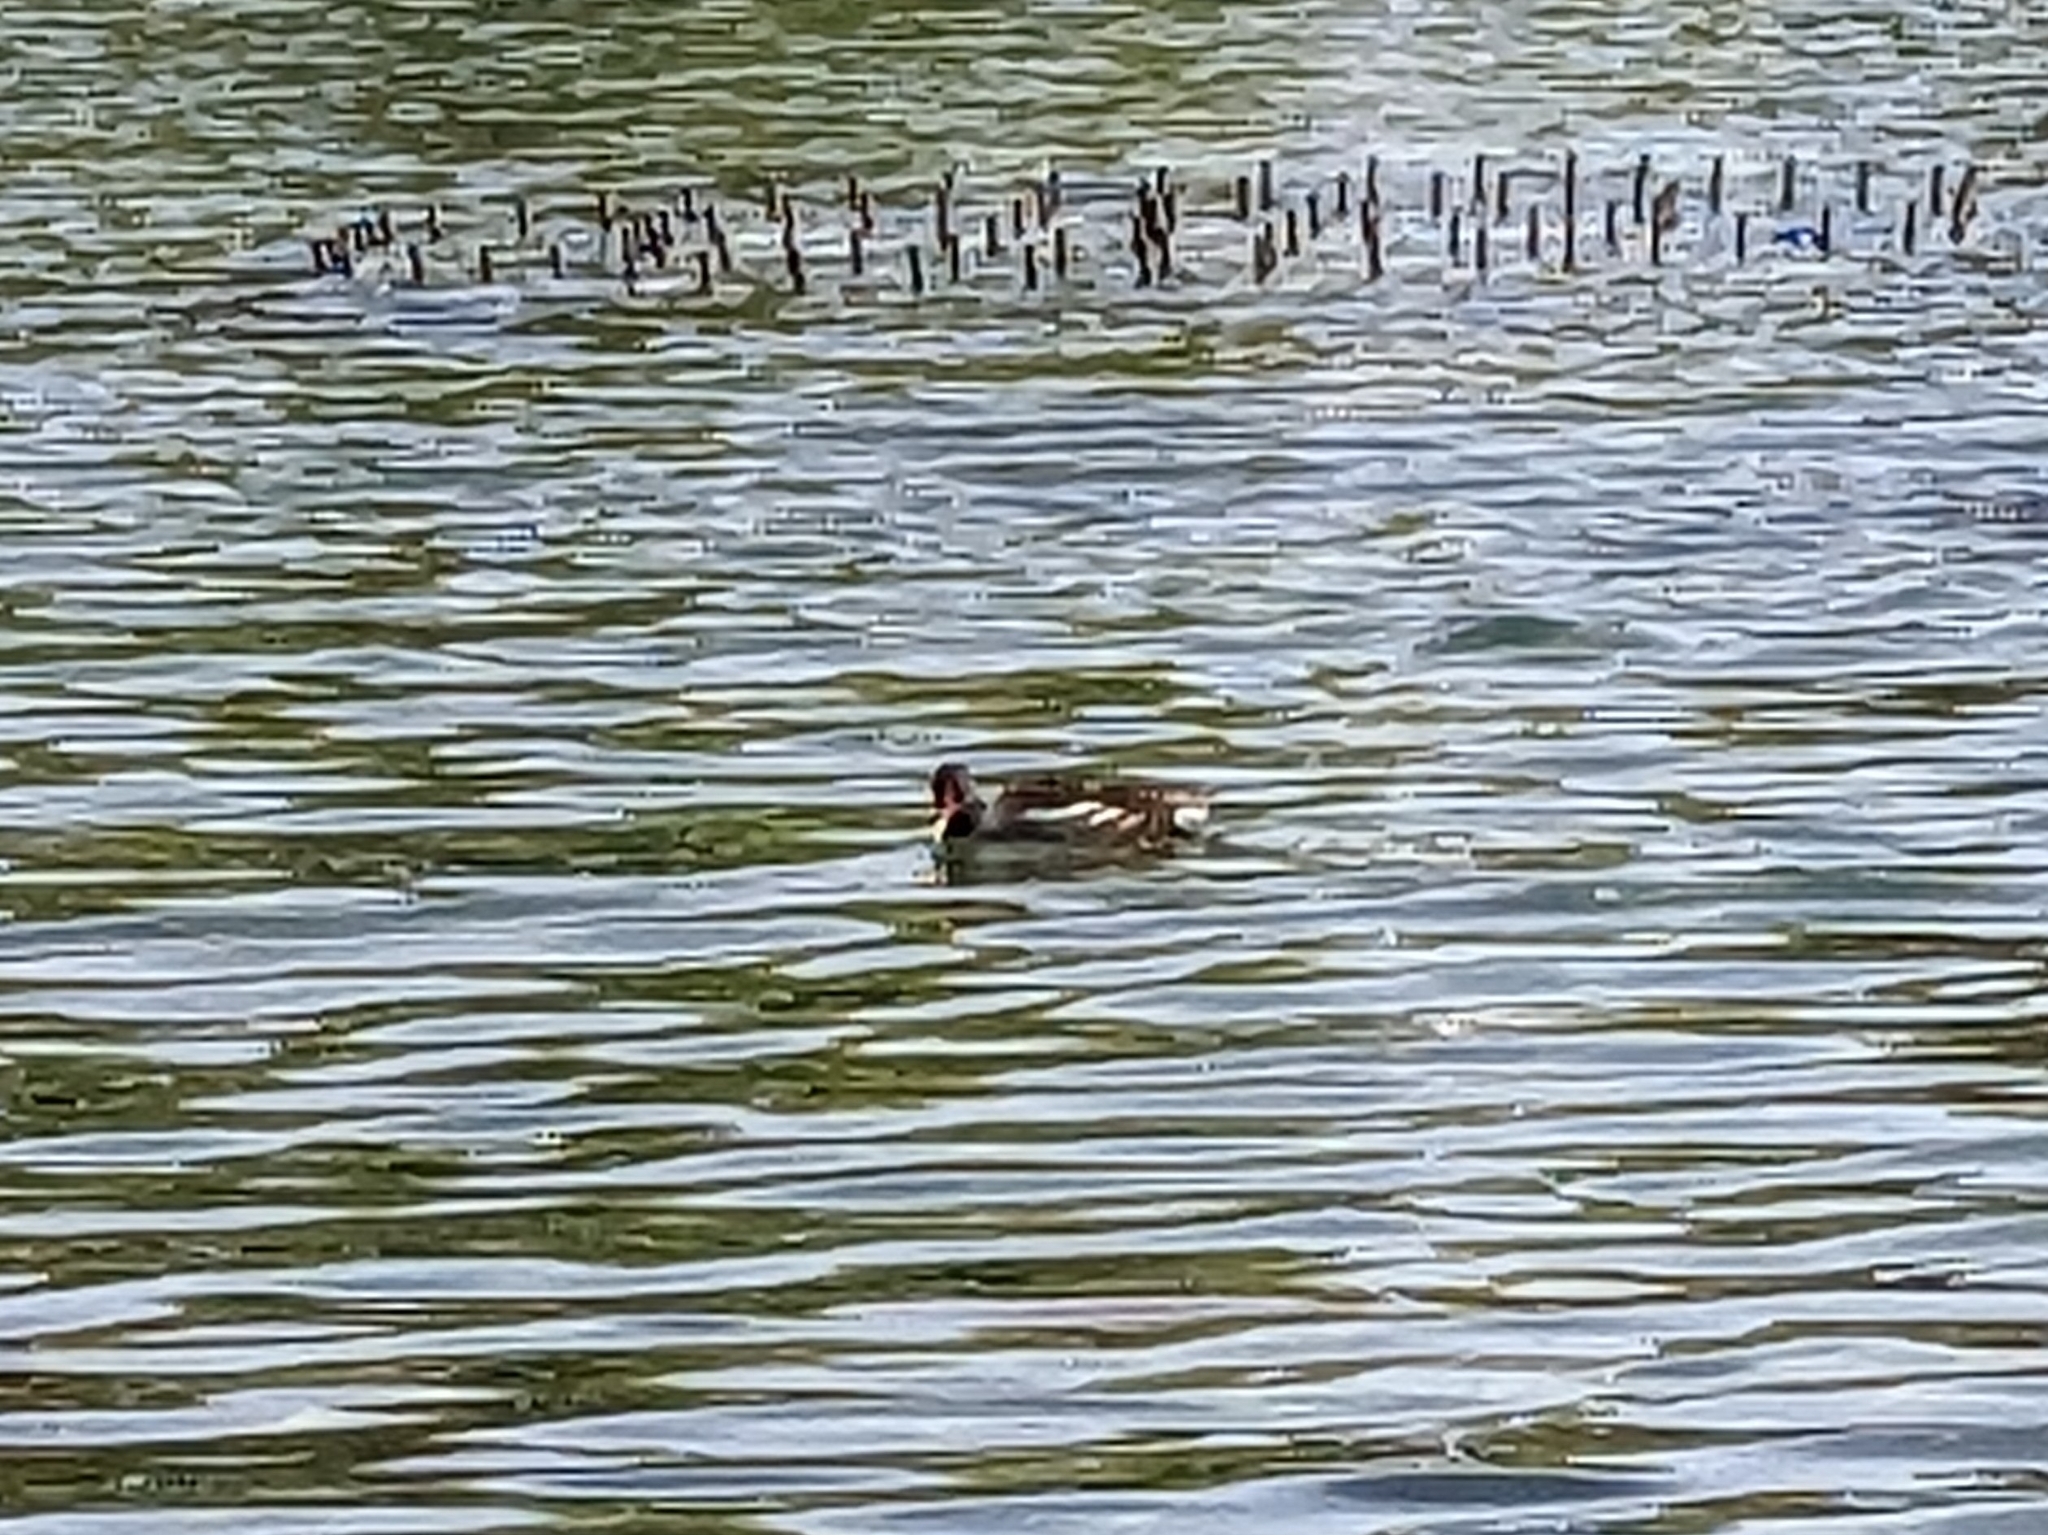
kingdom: Animalia
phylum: Chordata
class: Aves
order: Gruiformes
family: Rallidae
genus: Gallinula
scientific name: Gallinula chloropus
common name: Common moorhen
